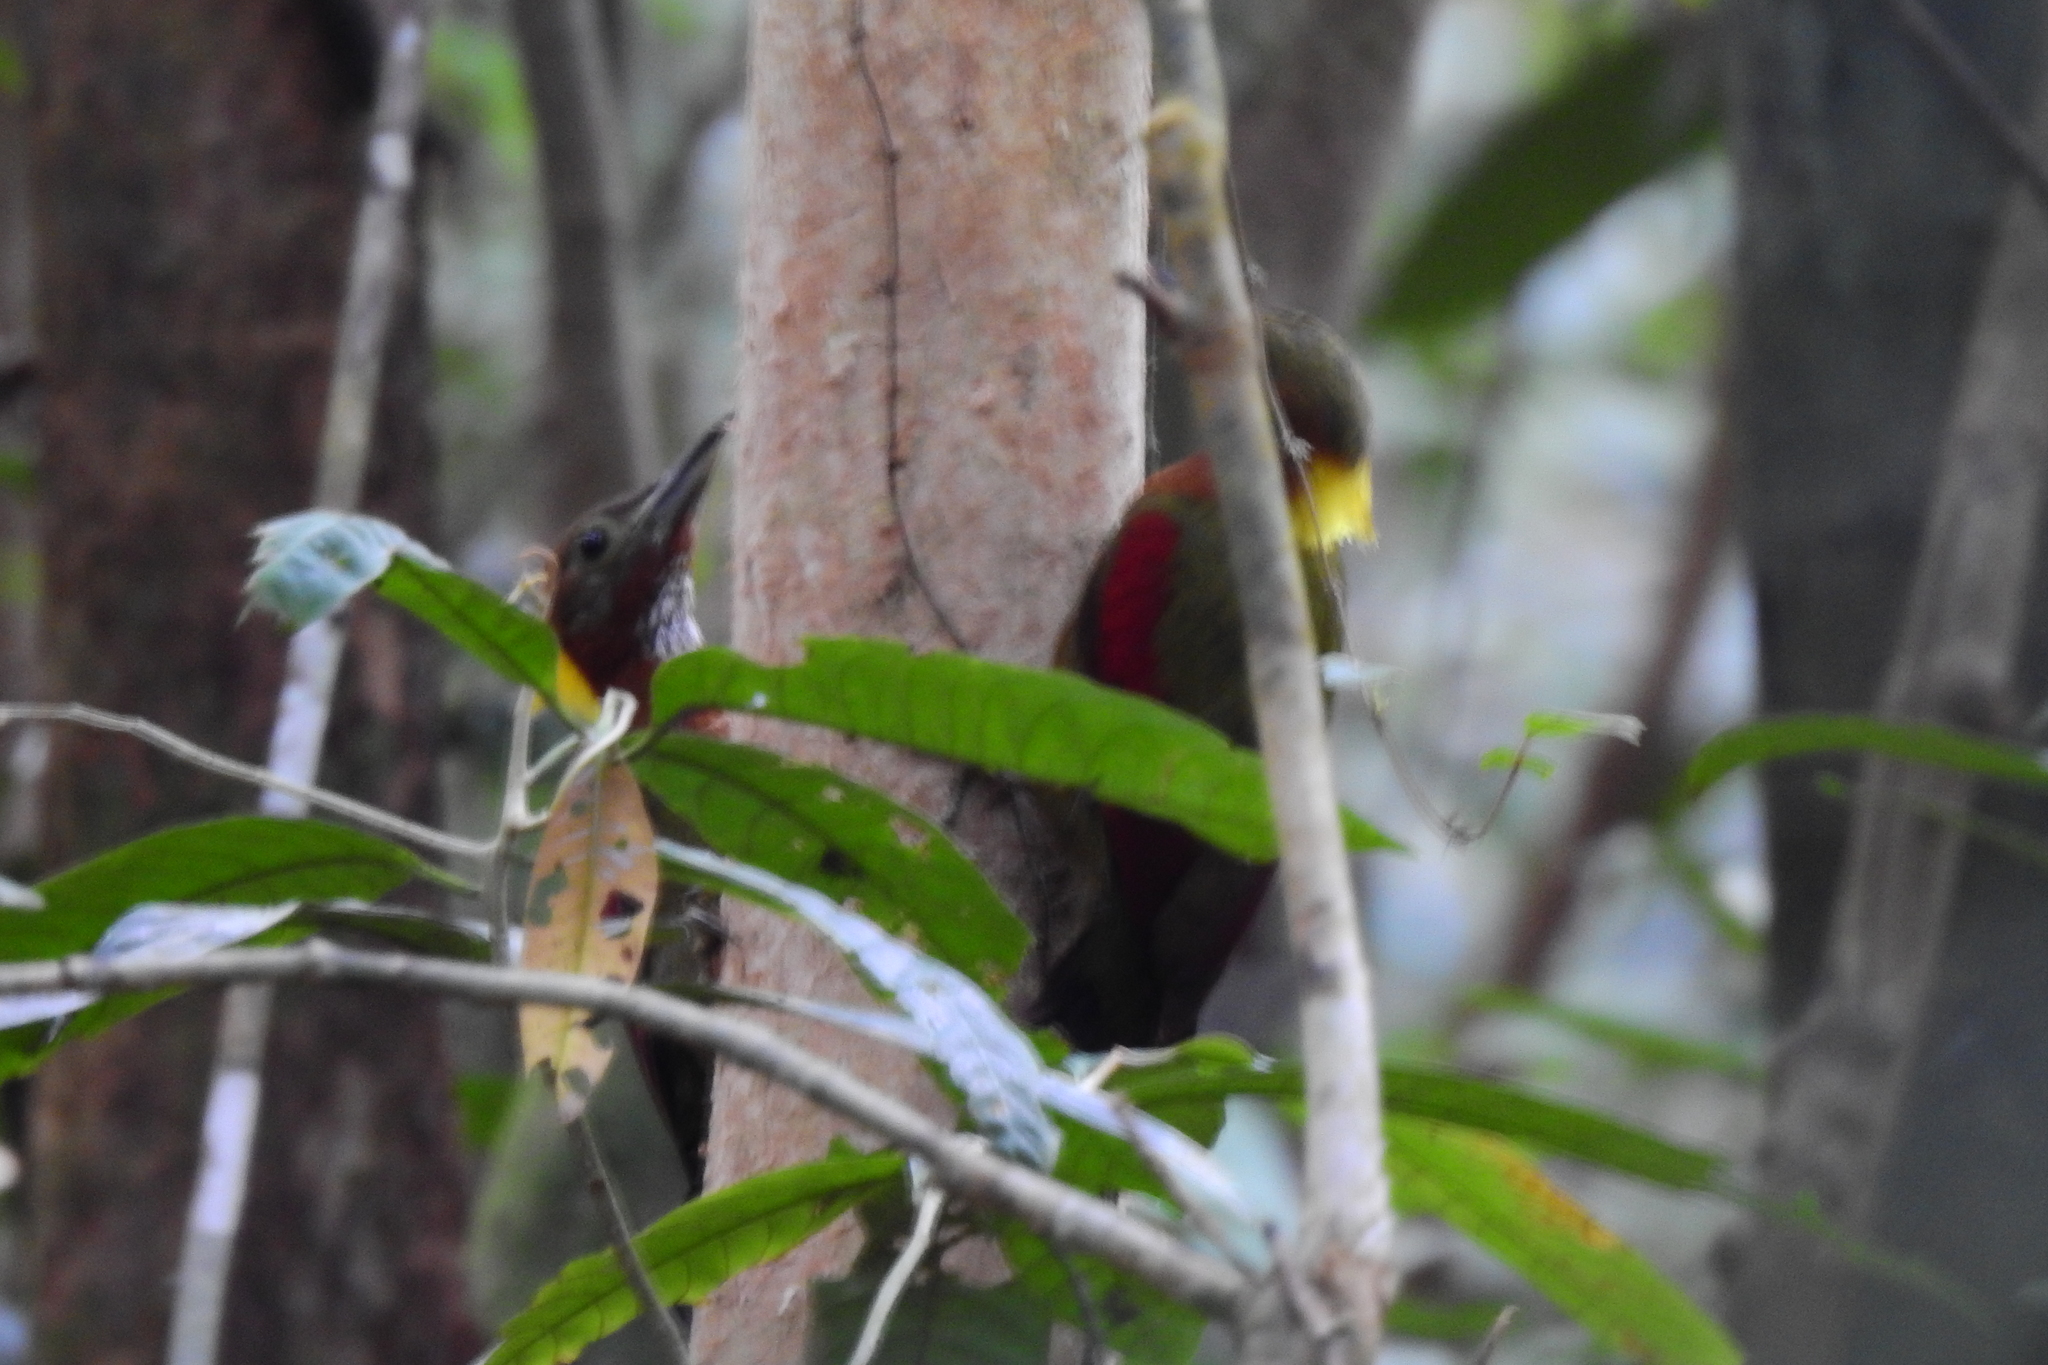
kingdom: Animalia
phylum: Chordata
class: Aves
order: Piciformes
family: Picidae
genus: Chrysophlegma
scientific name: Chrysophlegma mentale
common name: Checker-throated woodpecker
